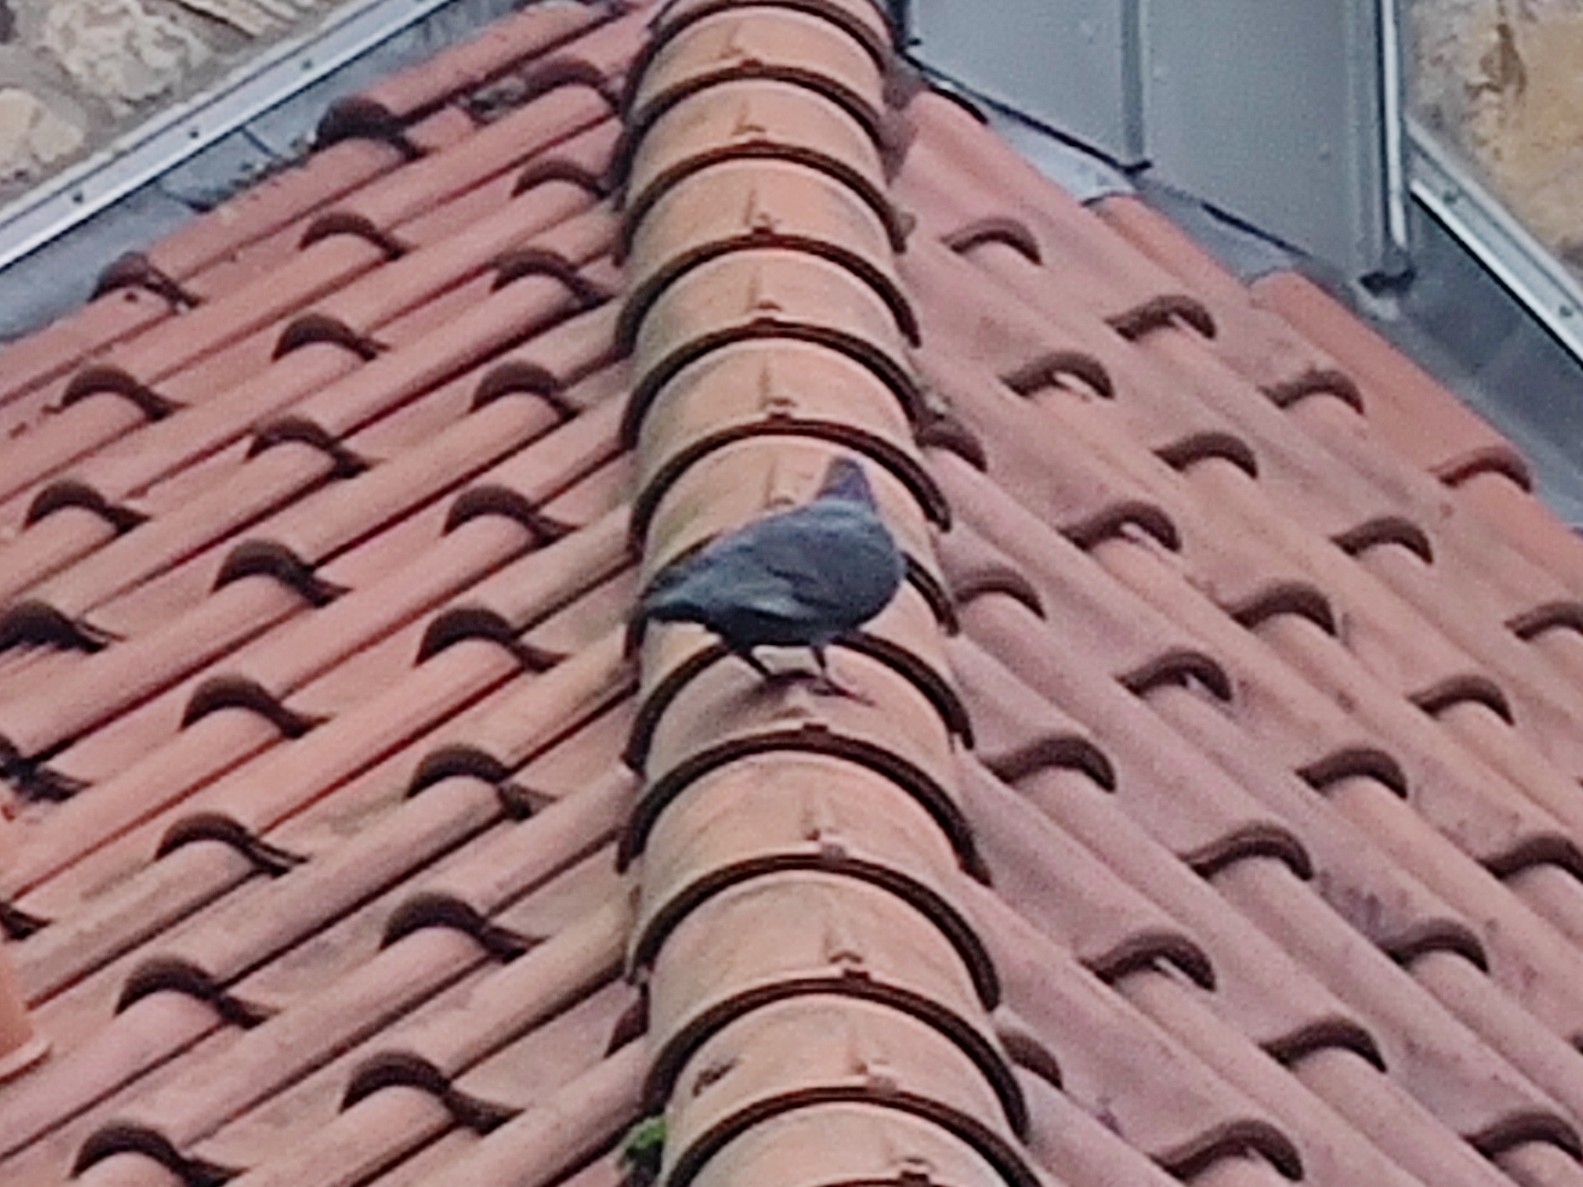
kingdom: Animalia
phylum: Chordata
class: Aves
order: Columbiformes
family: Columbidae
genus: Columba
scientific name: Columba livia
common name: Rock pigeon
